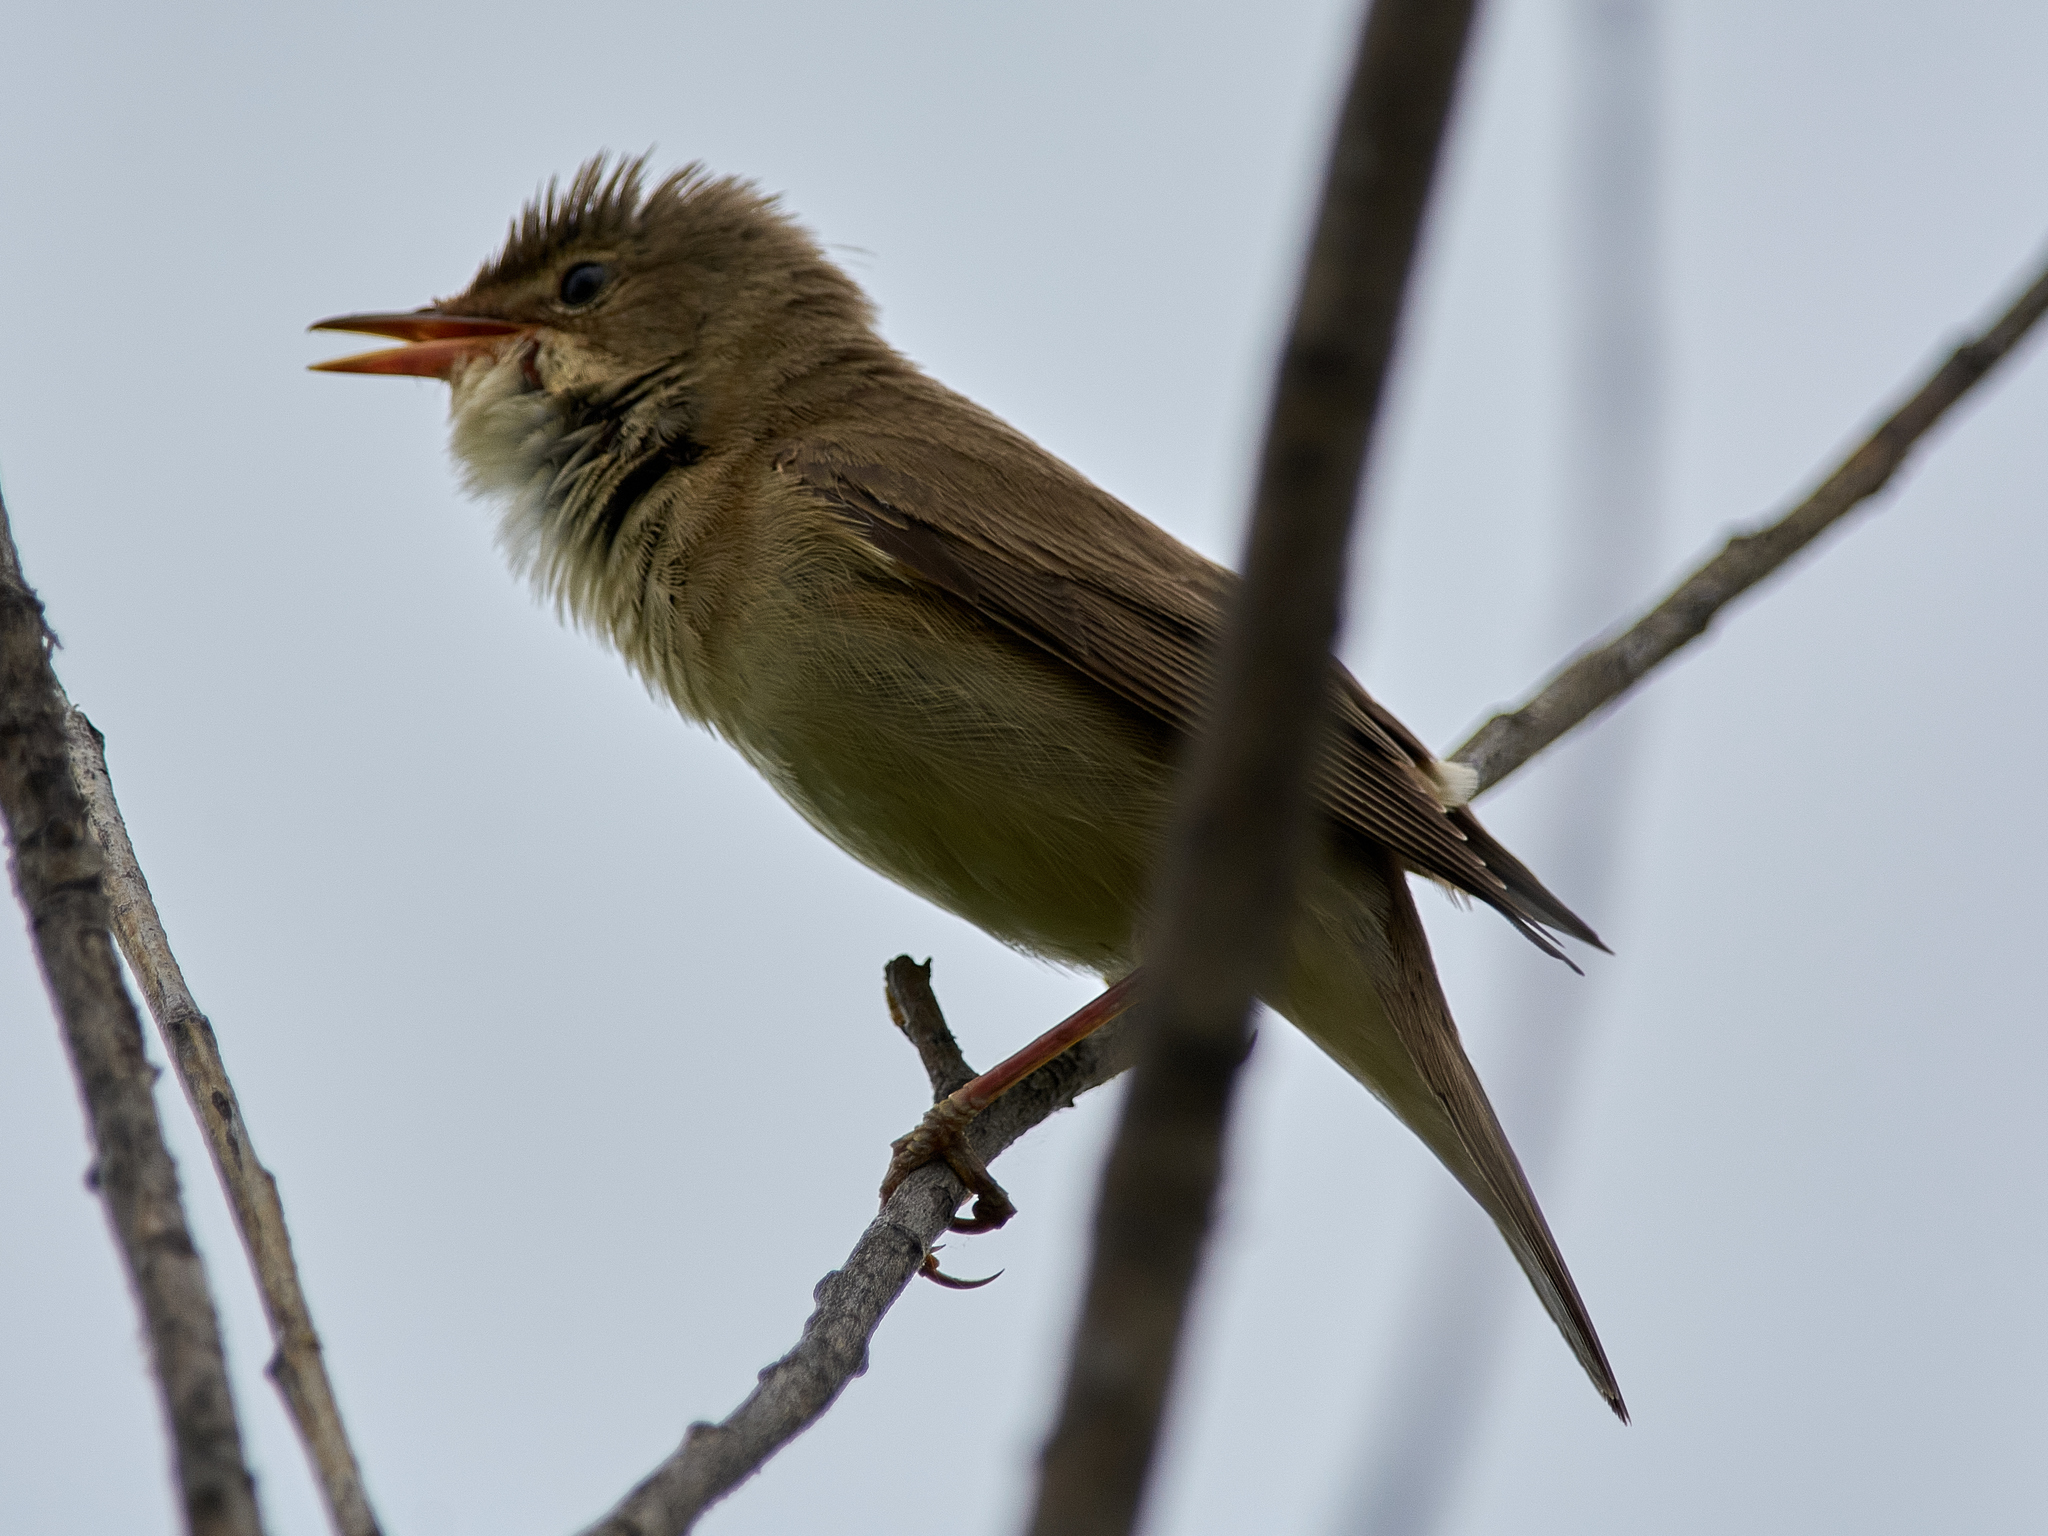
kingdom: Animalia
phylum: Chordata
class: Aves
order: Passeriformes
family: Acrocephalidae
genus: Acrocephalus
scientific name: Acrocephalus palustris
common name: Marsh warbler
